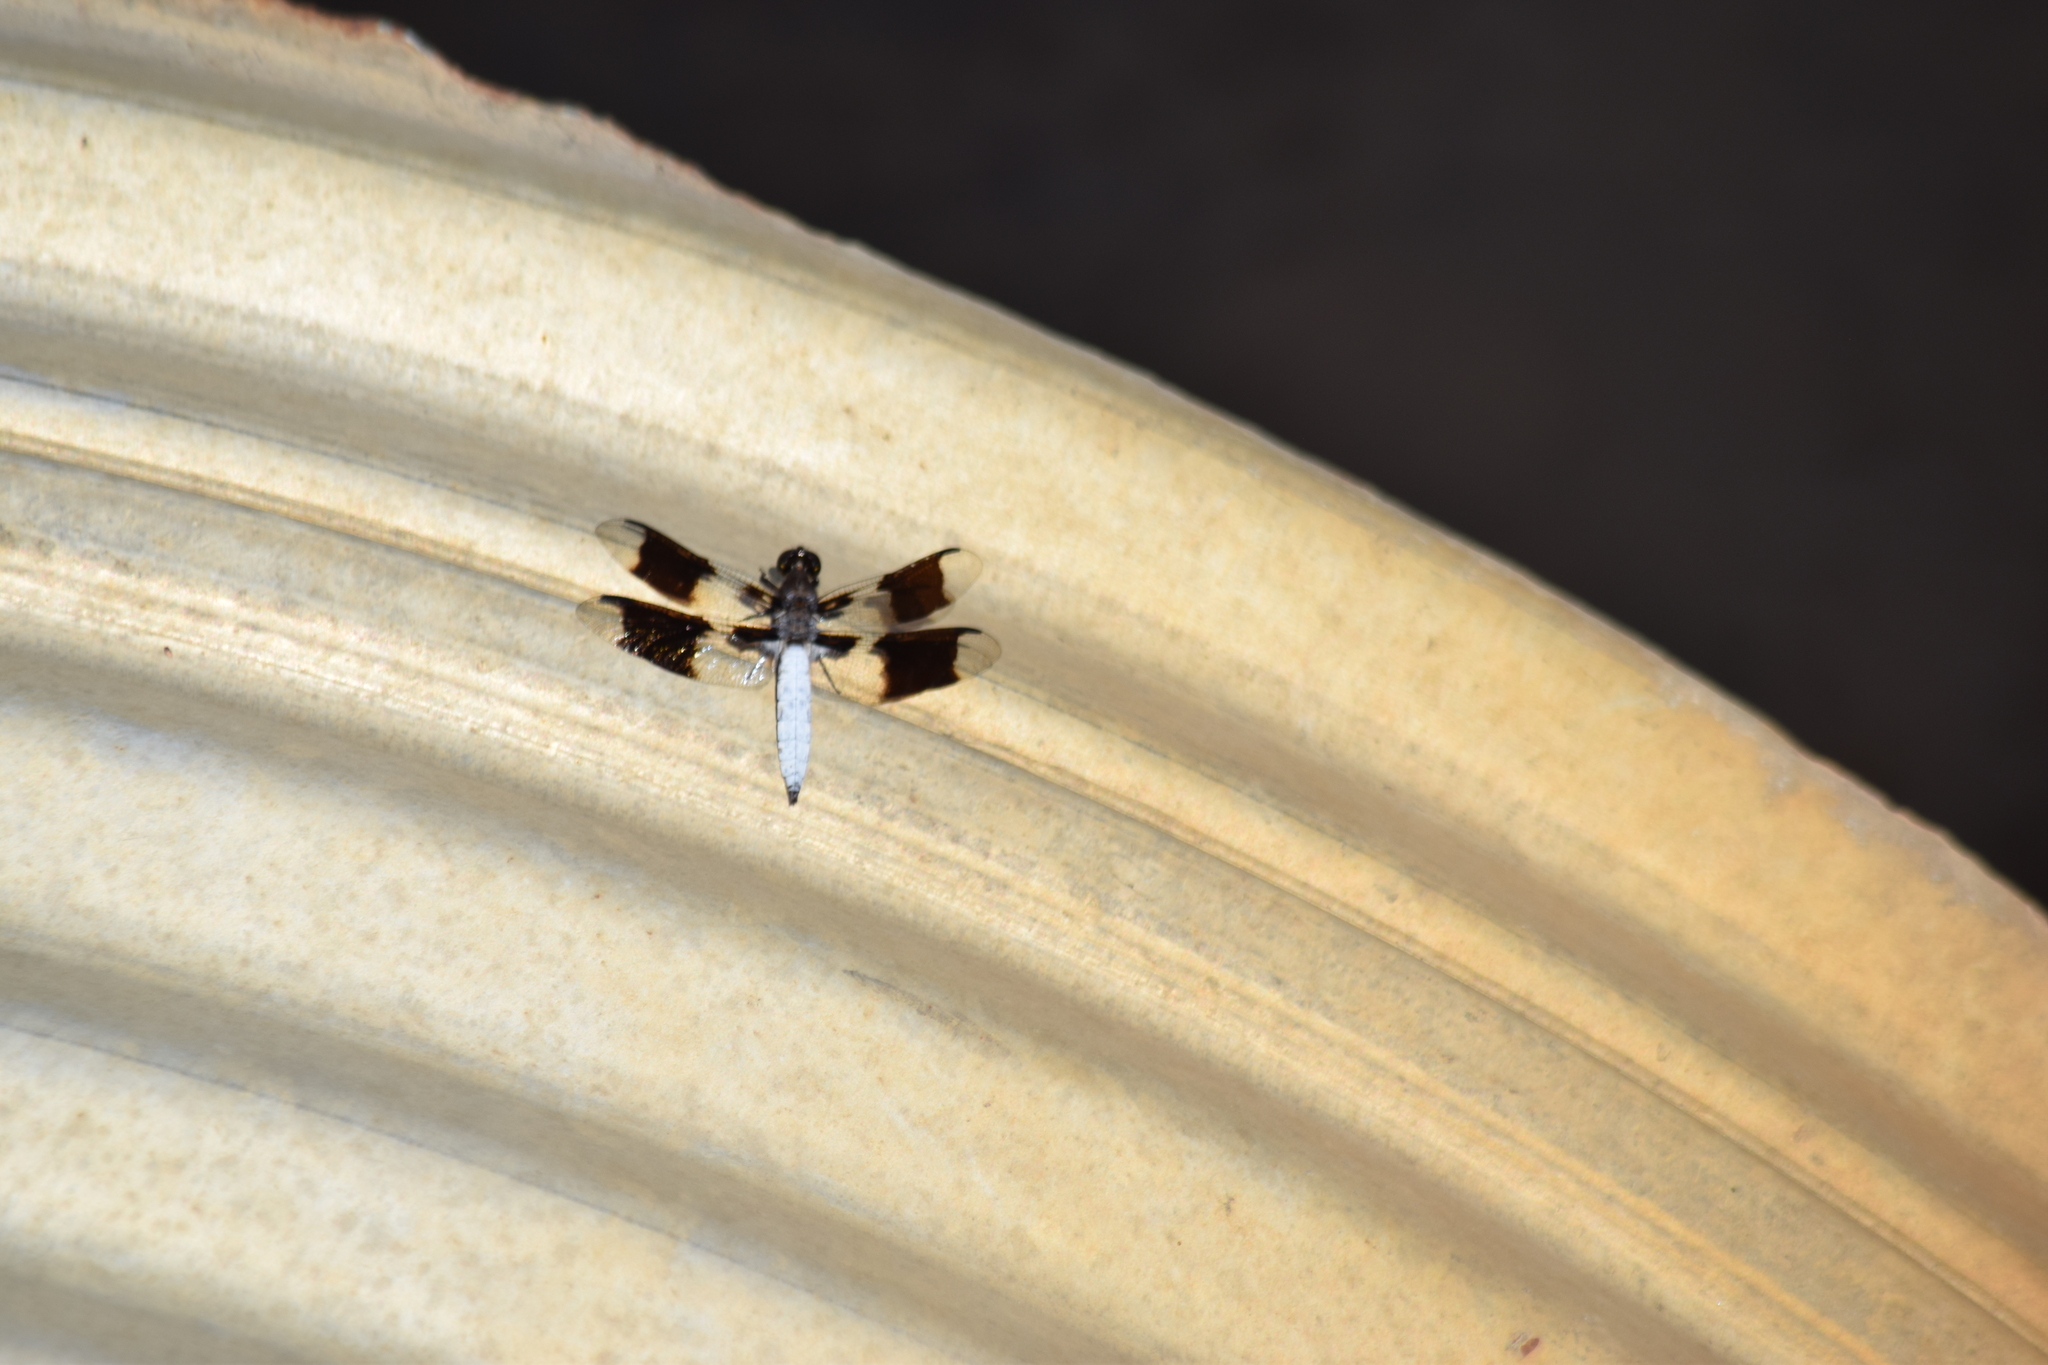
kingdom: Animalia
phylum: Arthropoda
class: Insecta
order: Odonata
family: Libellulidae
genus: Plathemis
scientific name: Plathemis lydia
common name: Common whitetail
